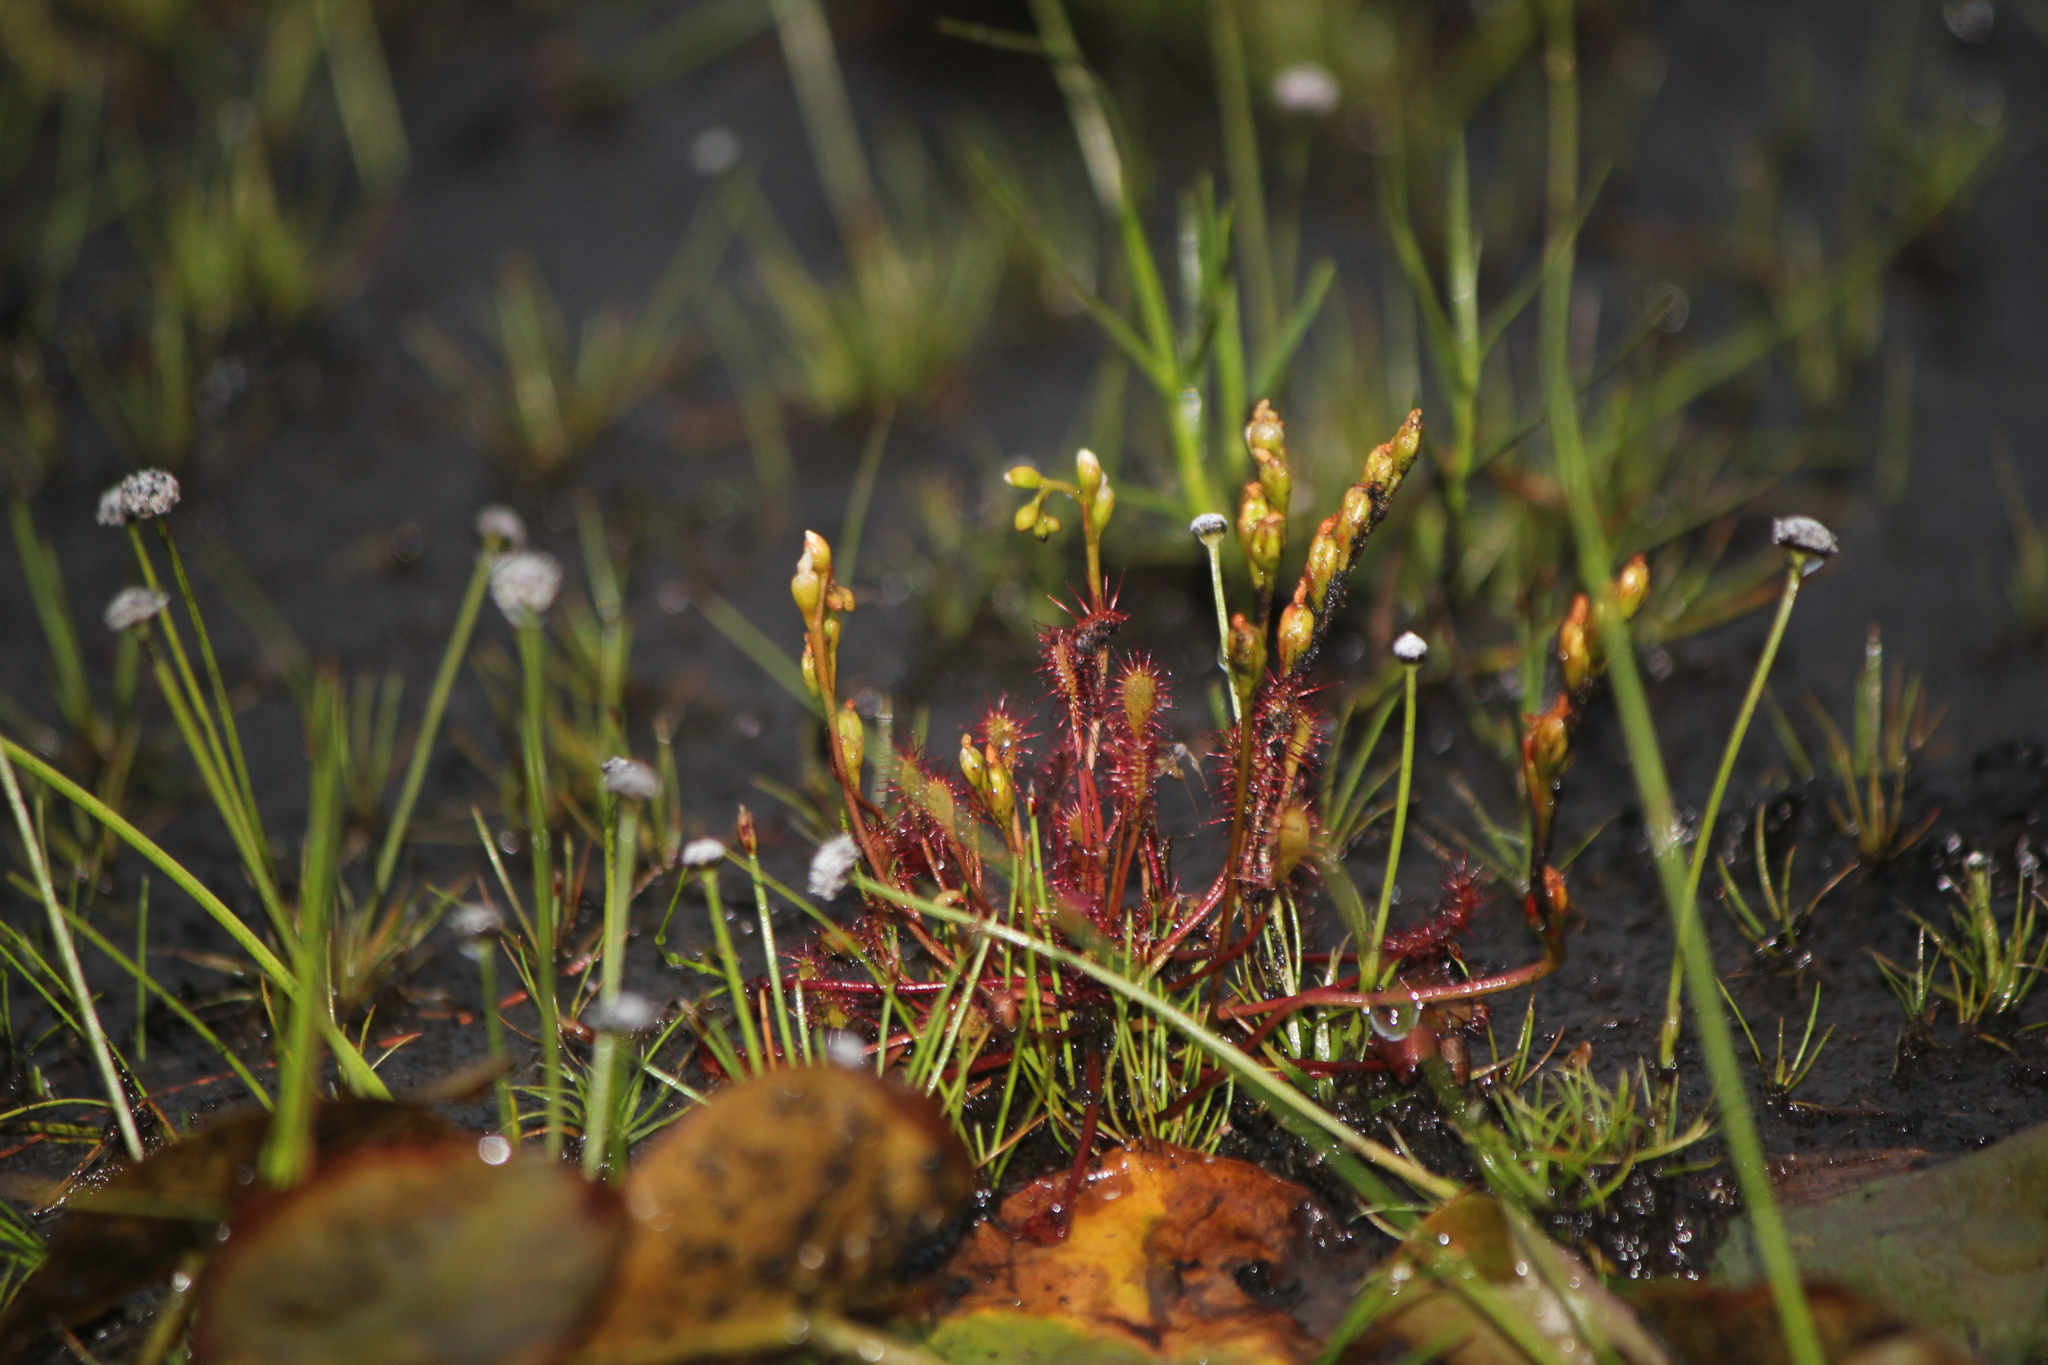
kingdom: Plantae
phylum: Tracheophyta
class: Magnoliopsida
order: Caryophyllales
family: Droseraceae
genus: Drosera
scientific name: Drosera intermedia
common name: Oblong-leaved sundew
